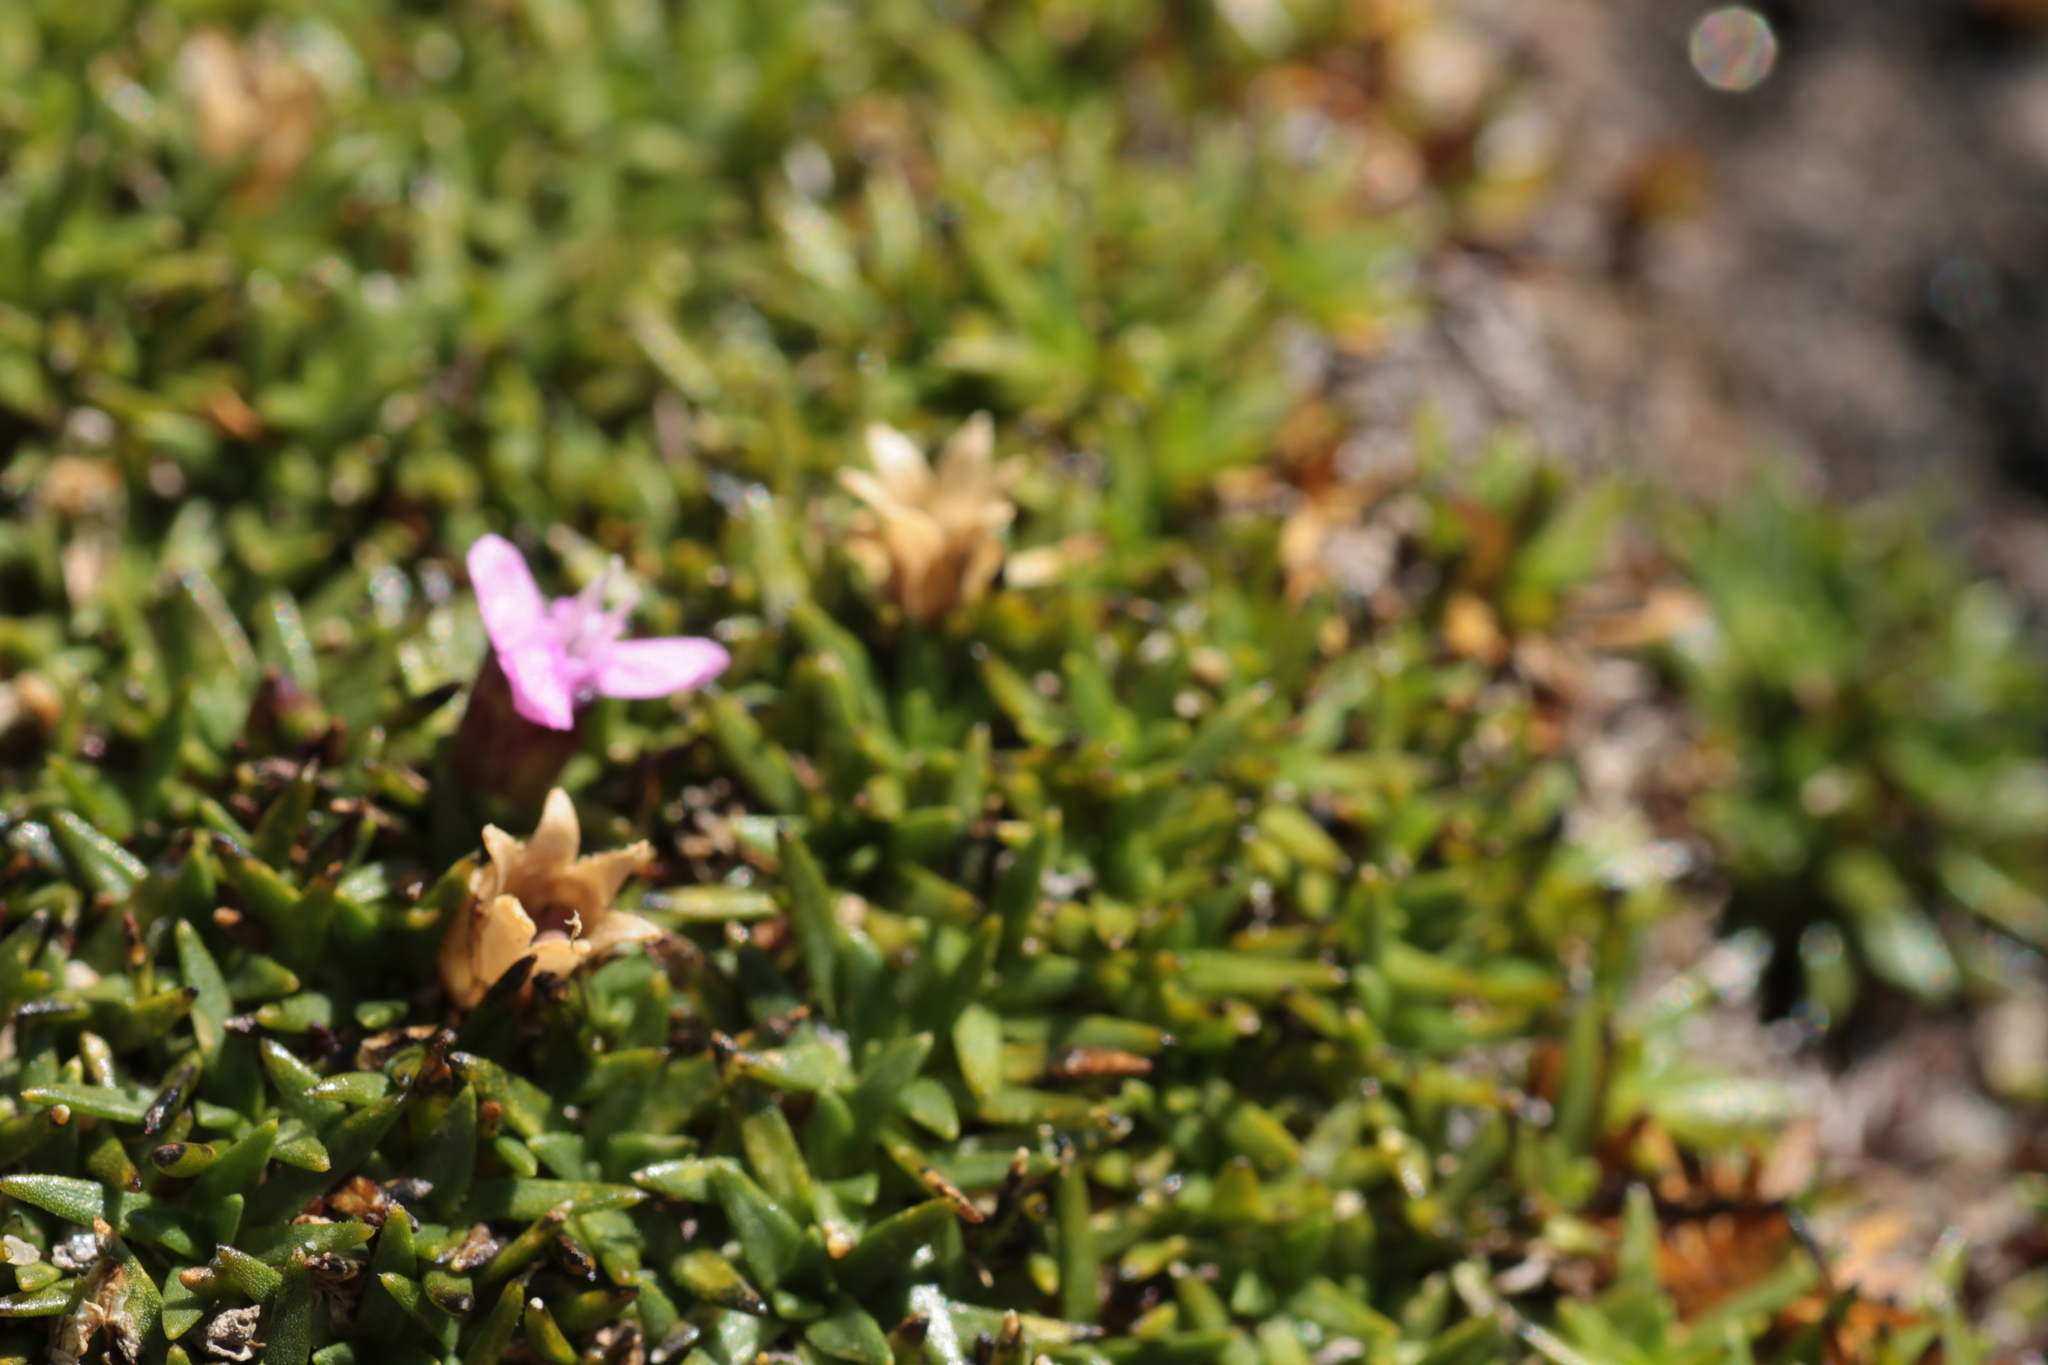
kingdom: Plantae
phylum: Tracheophyta
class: Magnoliopsida
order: Caryophyllales
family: Caryophyllaceae
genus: Silene
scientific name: Silene acaulis
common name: Moss campion
